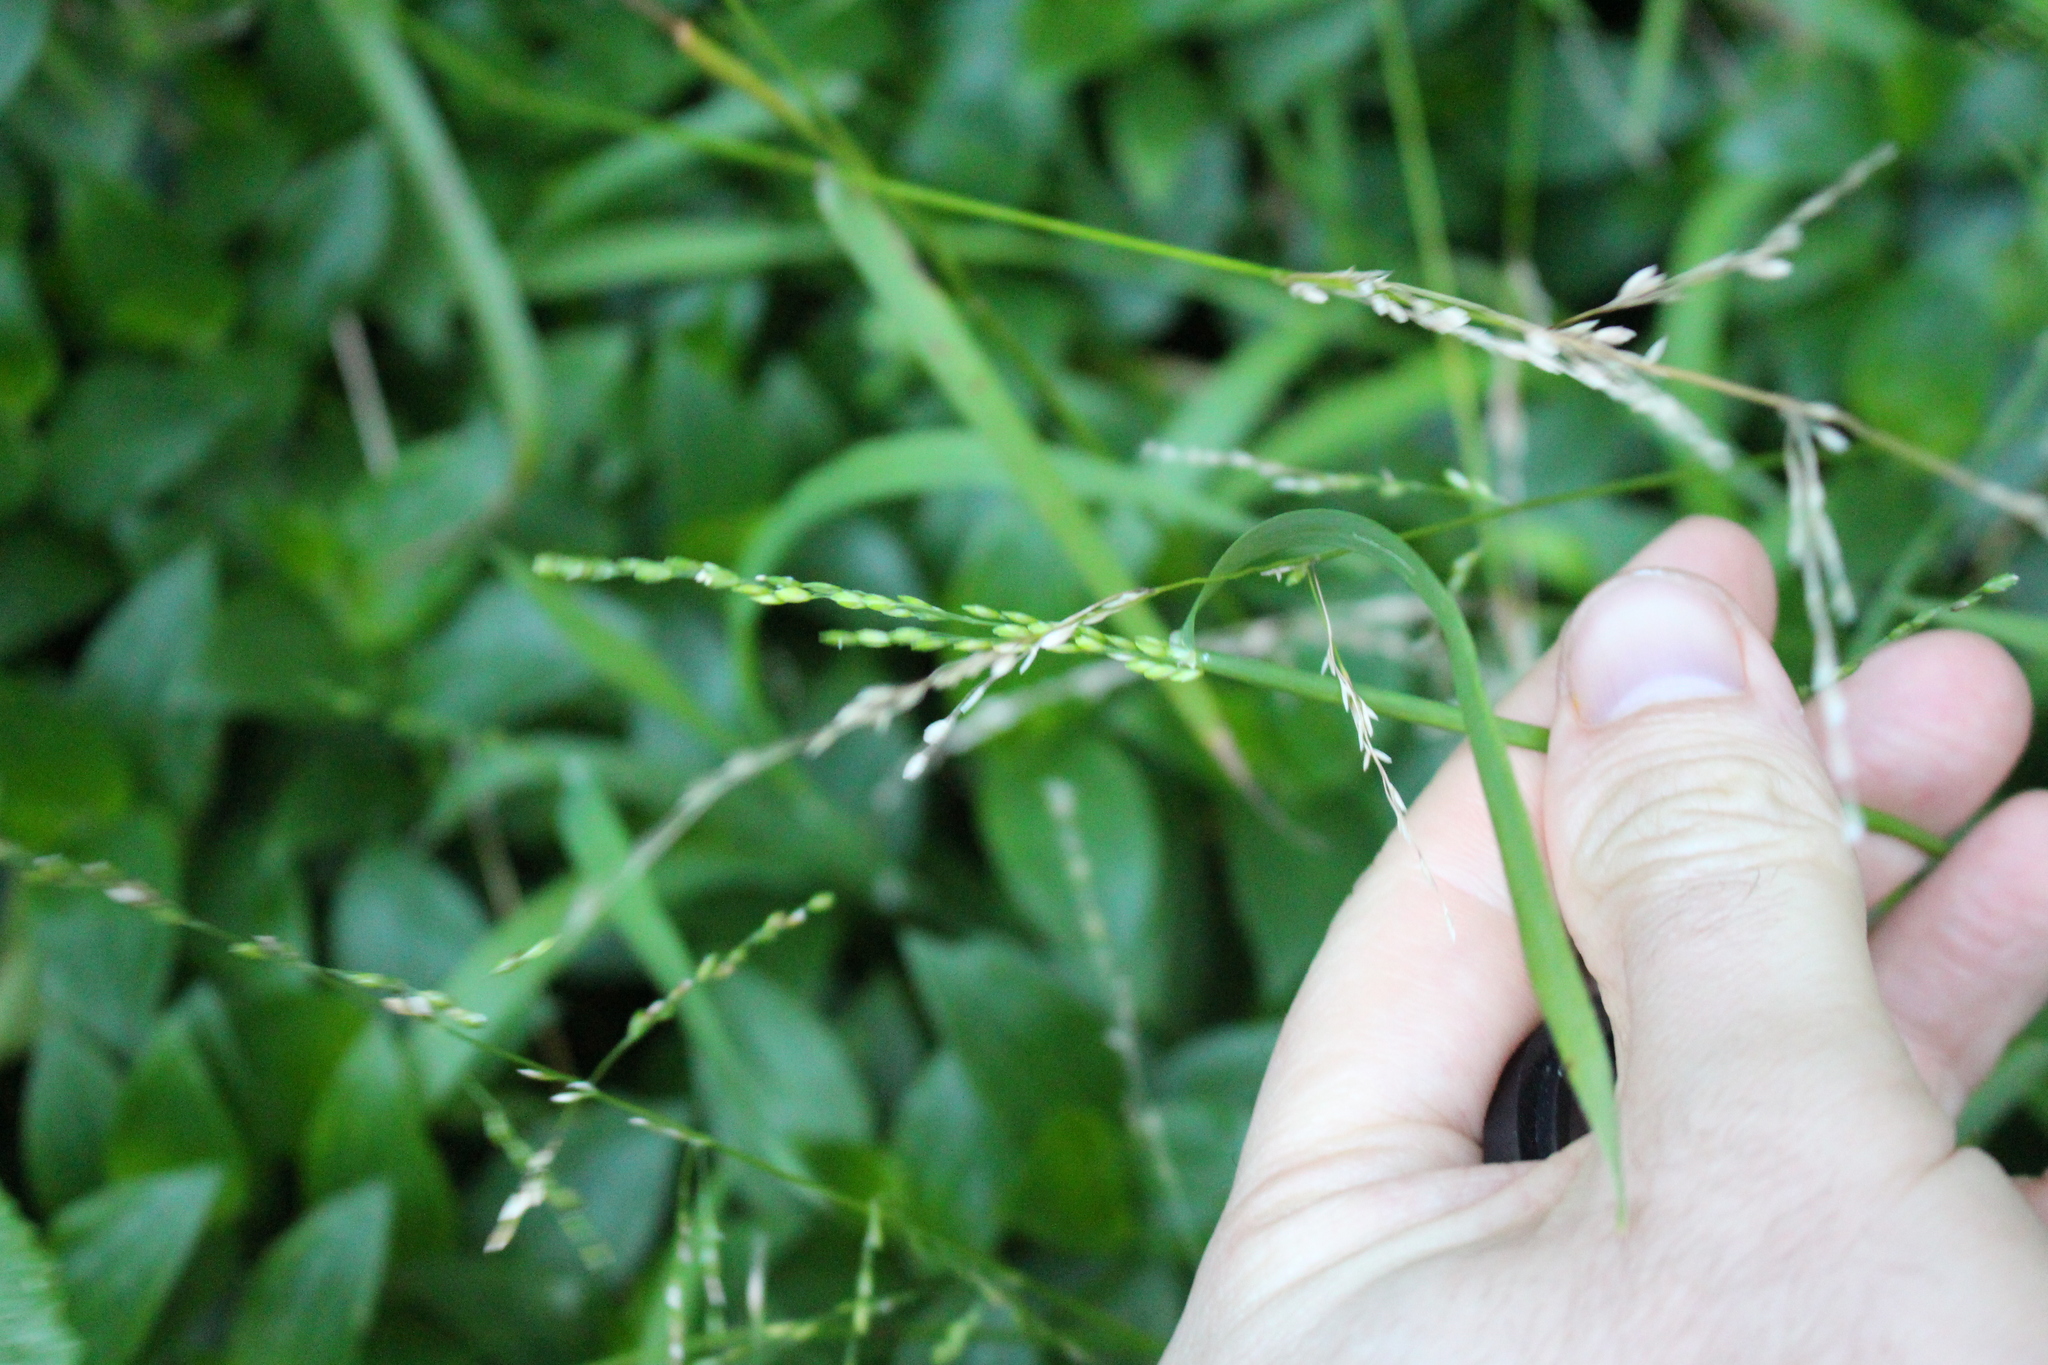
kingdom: Plantae
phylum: Tracheophyta
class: Liliopsida
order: Poales
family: Poaceae
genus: Ehrharta
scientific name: Ehrharta erecta
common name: Panic veldtgrass
